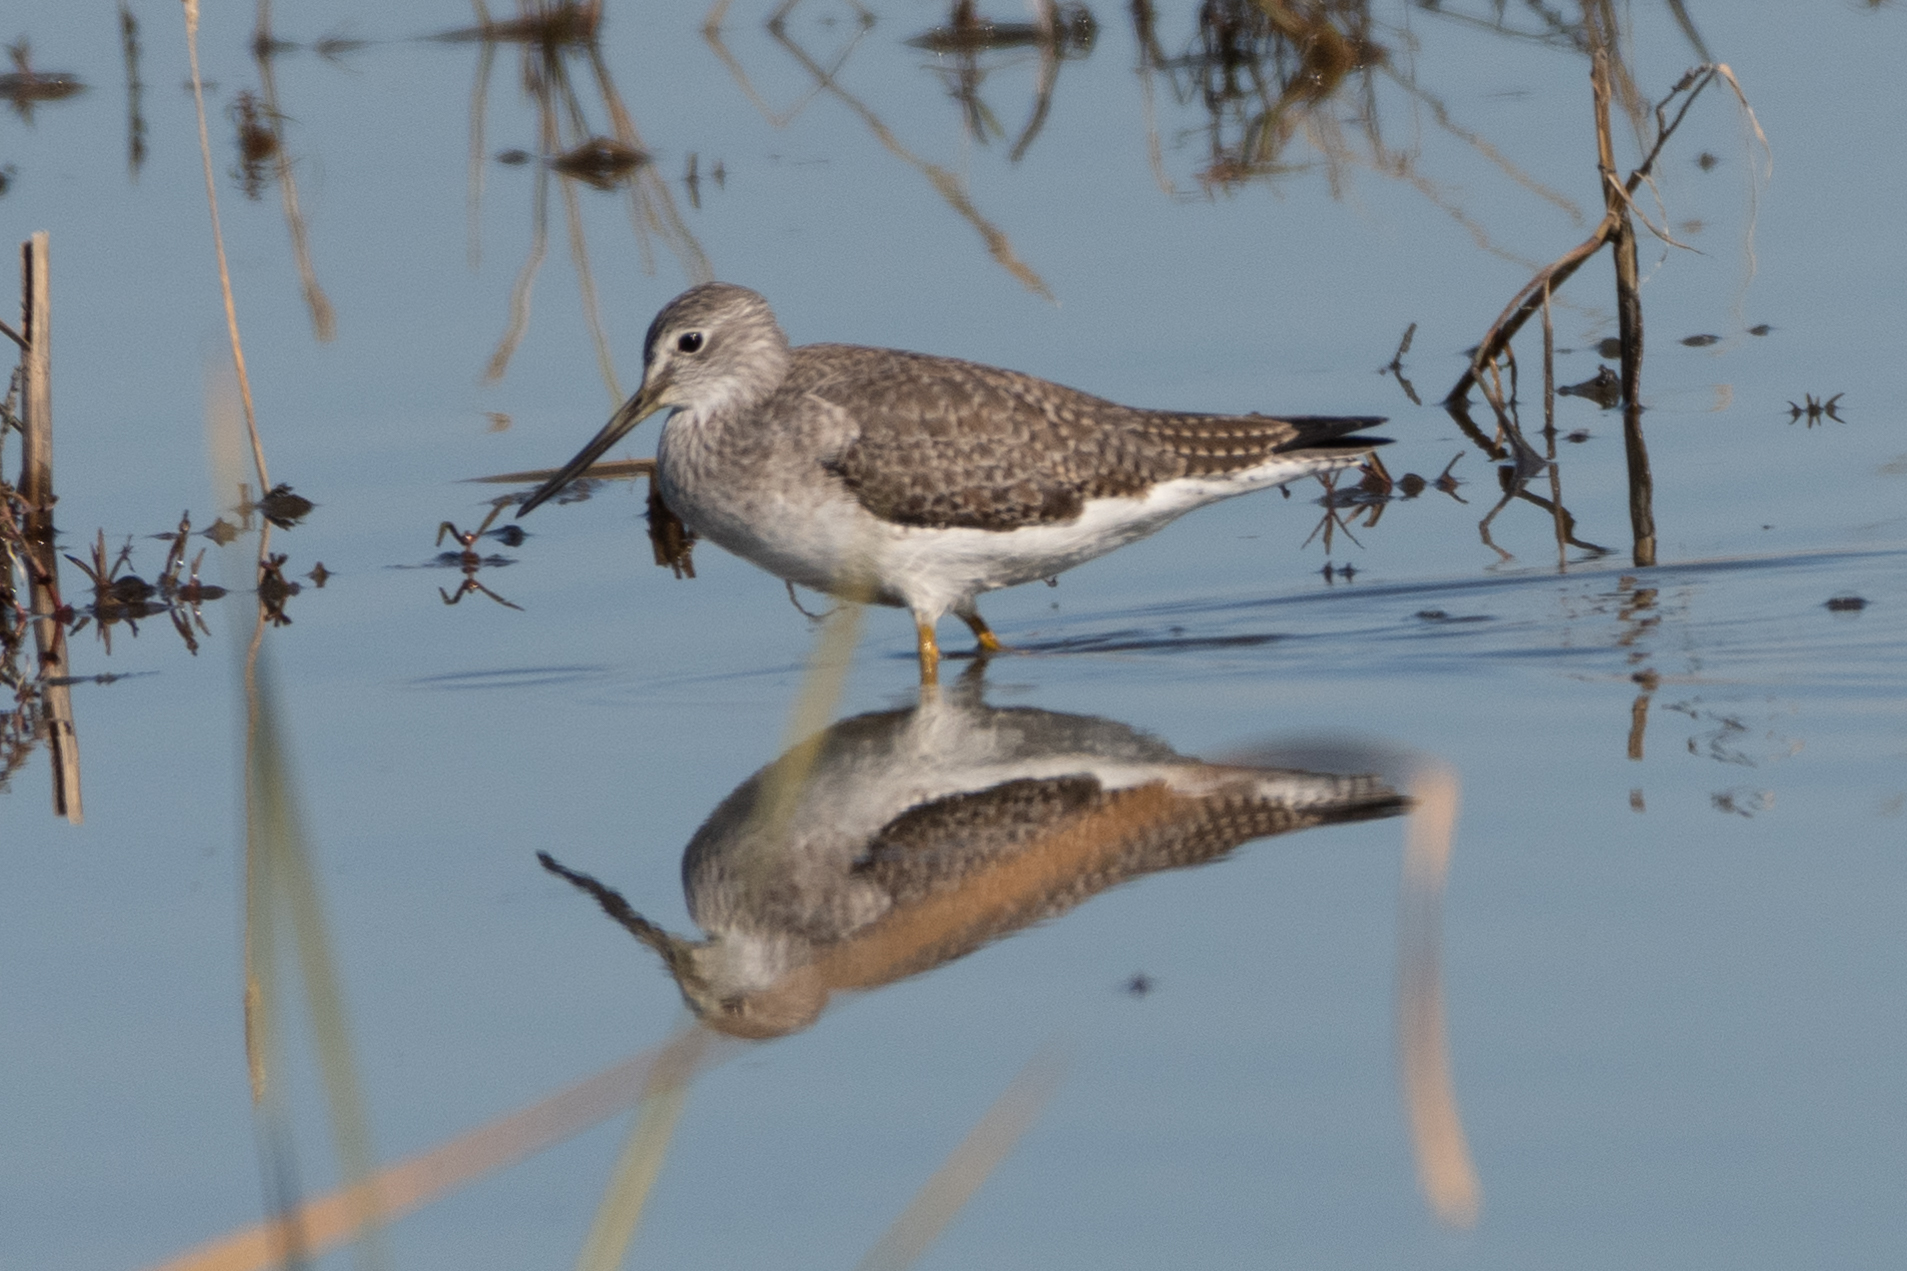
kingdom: Animalia
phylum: Chordata
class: Aves
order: Charadriiformes
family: Scolopacidae
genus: Tringa
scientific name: Tringa melanoleuca
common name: Greater yellowlegs
